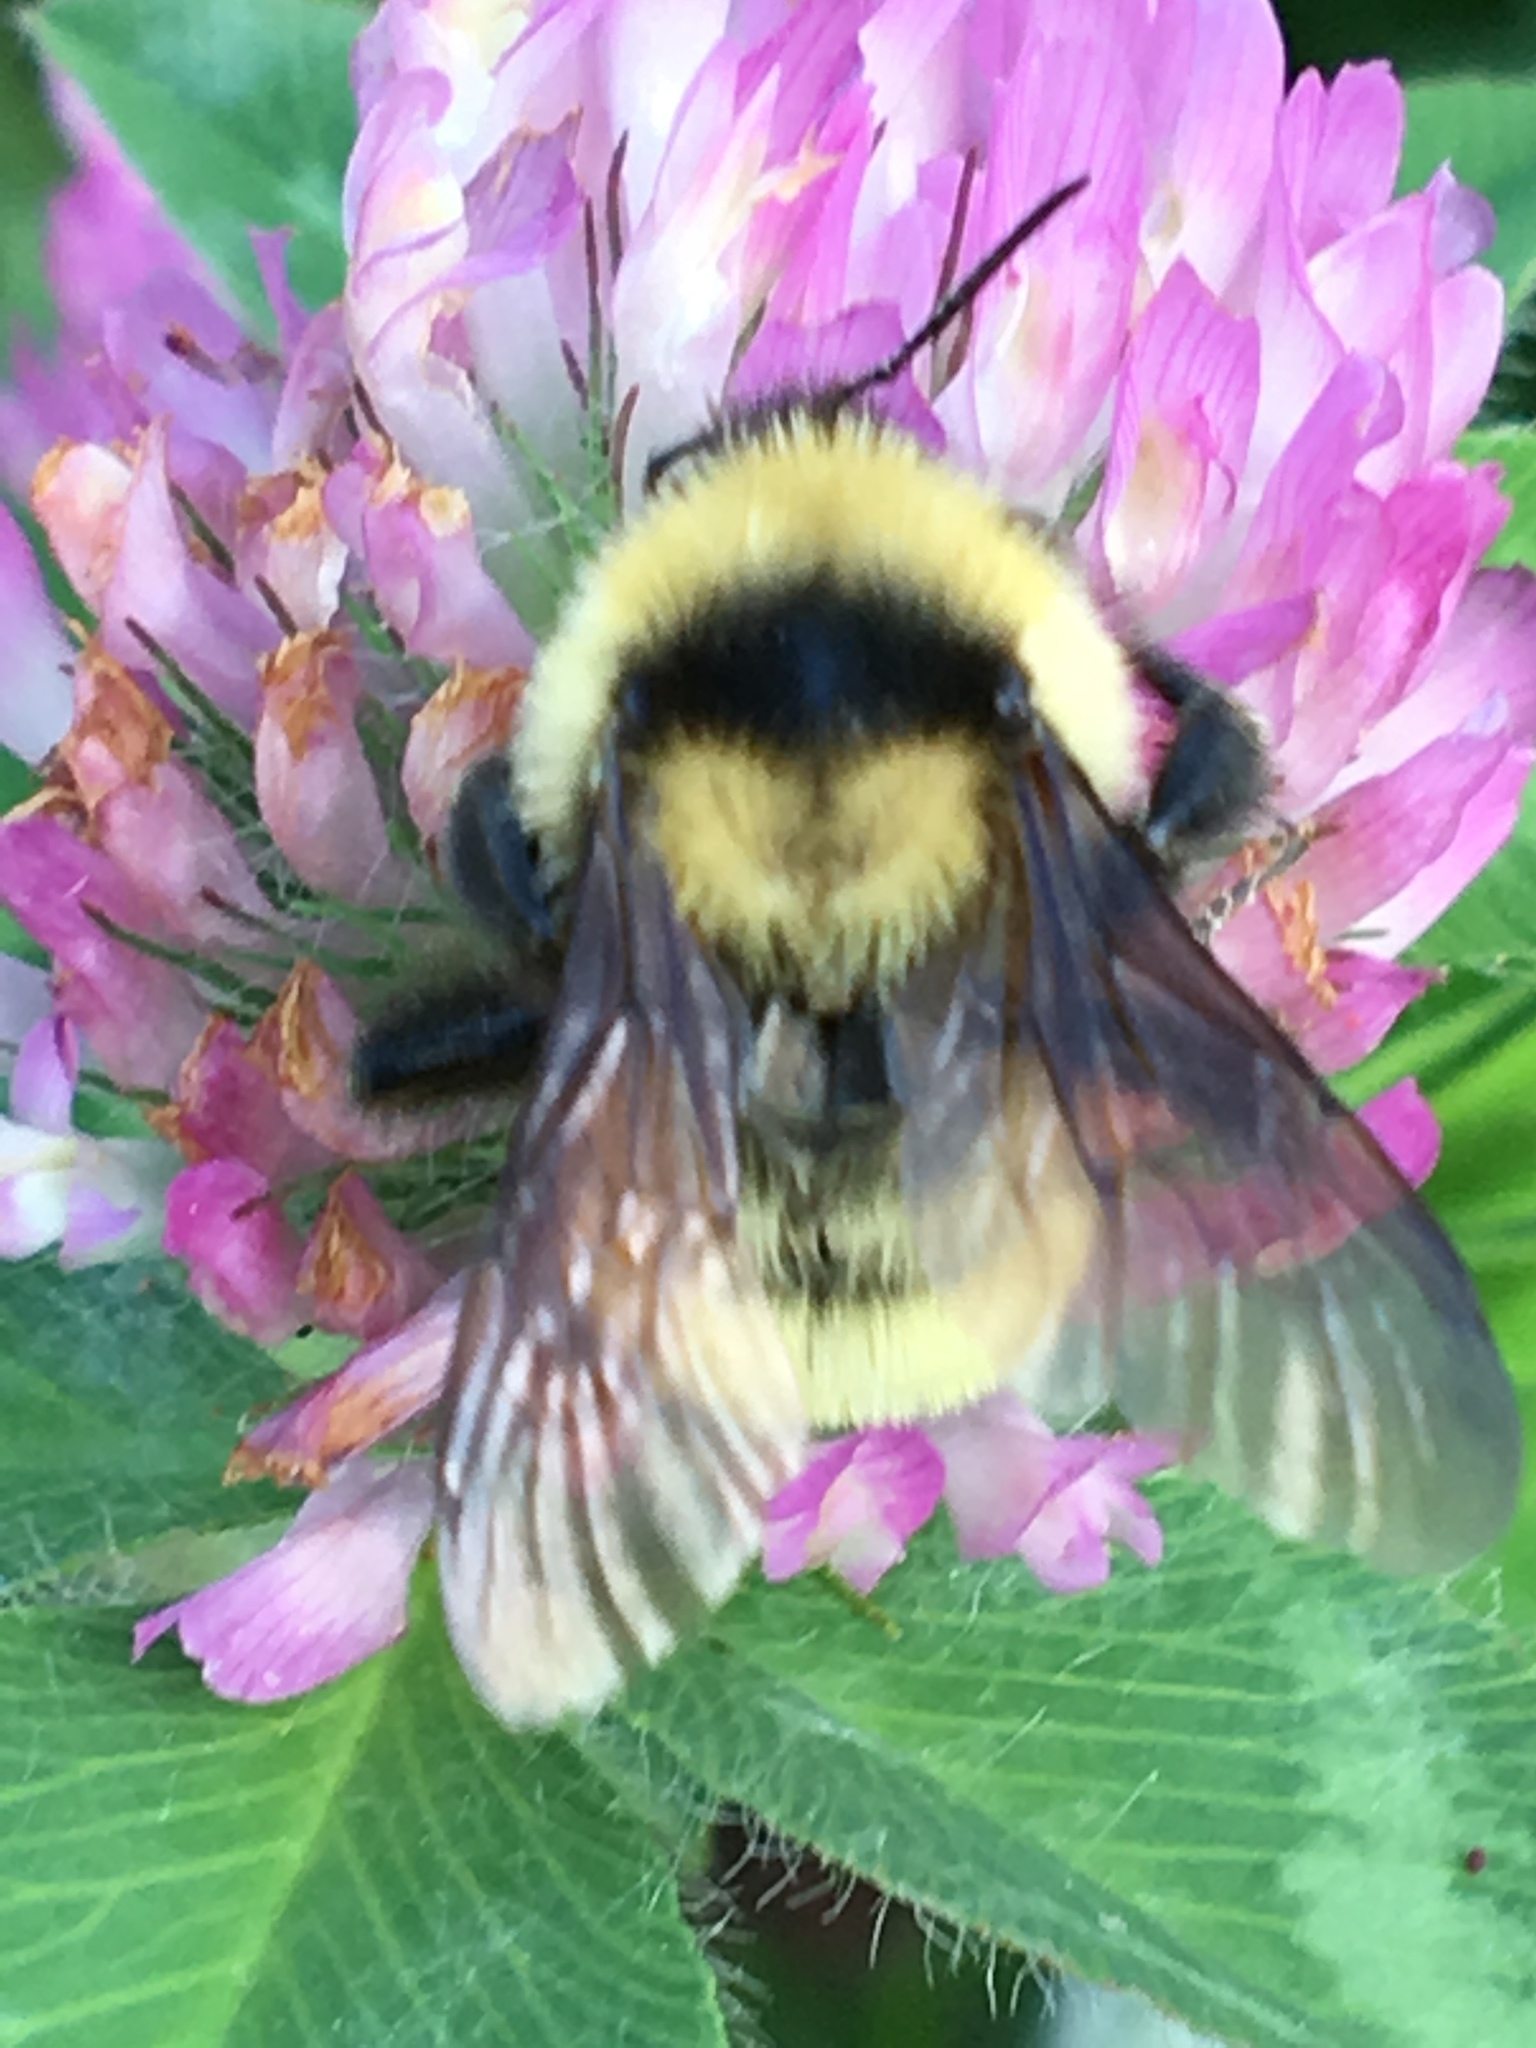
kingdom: Animalia
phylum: Arthropoda
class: Insecta
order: Hymenoptera
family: Apidae
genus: Bombus
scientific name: Bombus fervidus
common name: Yellow bumble bee
